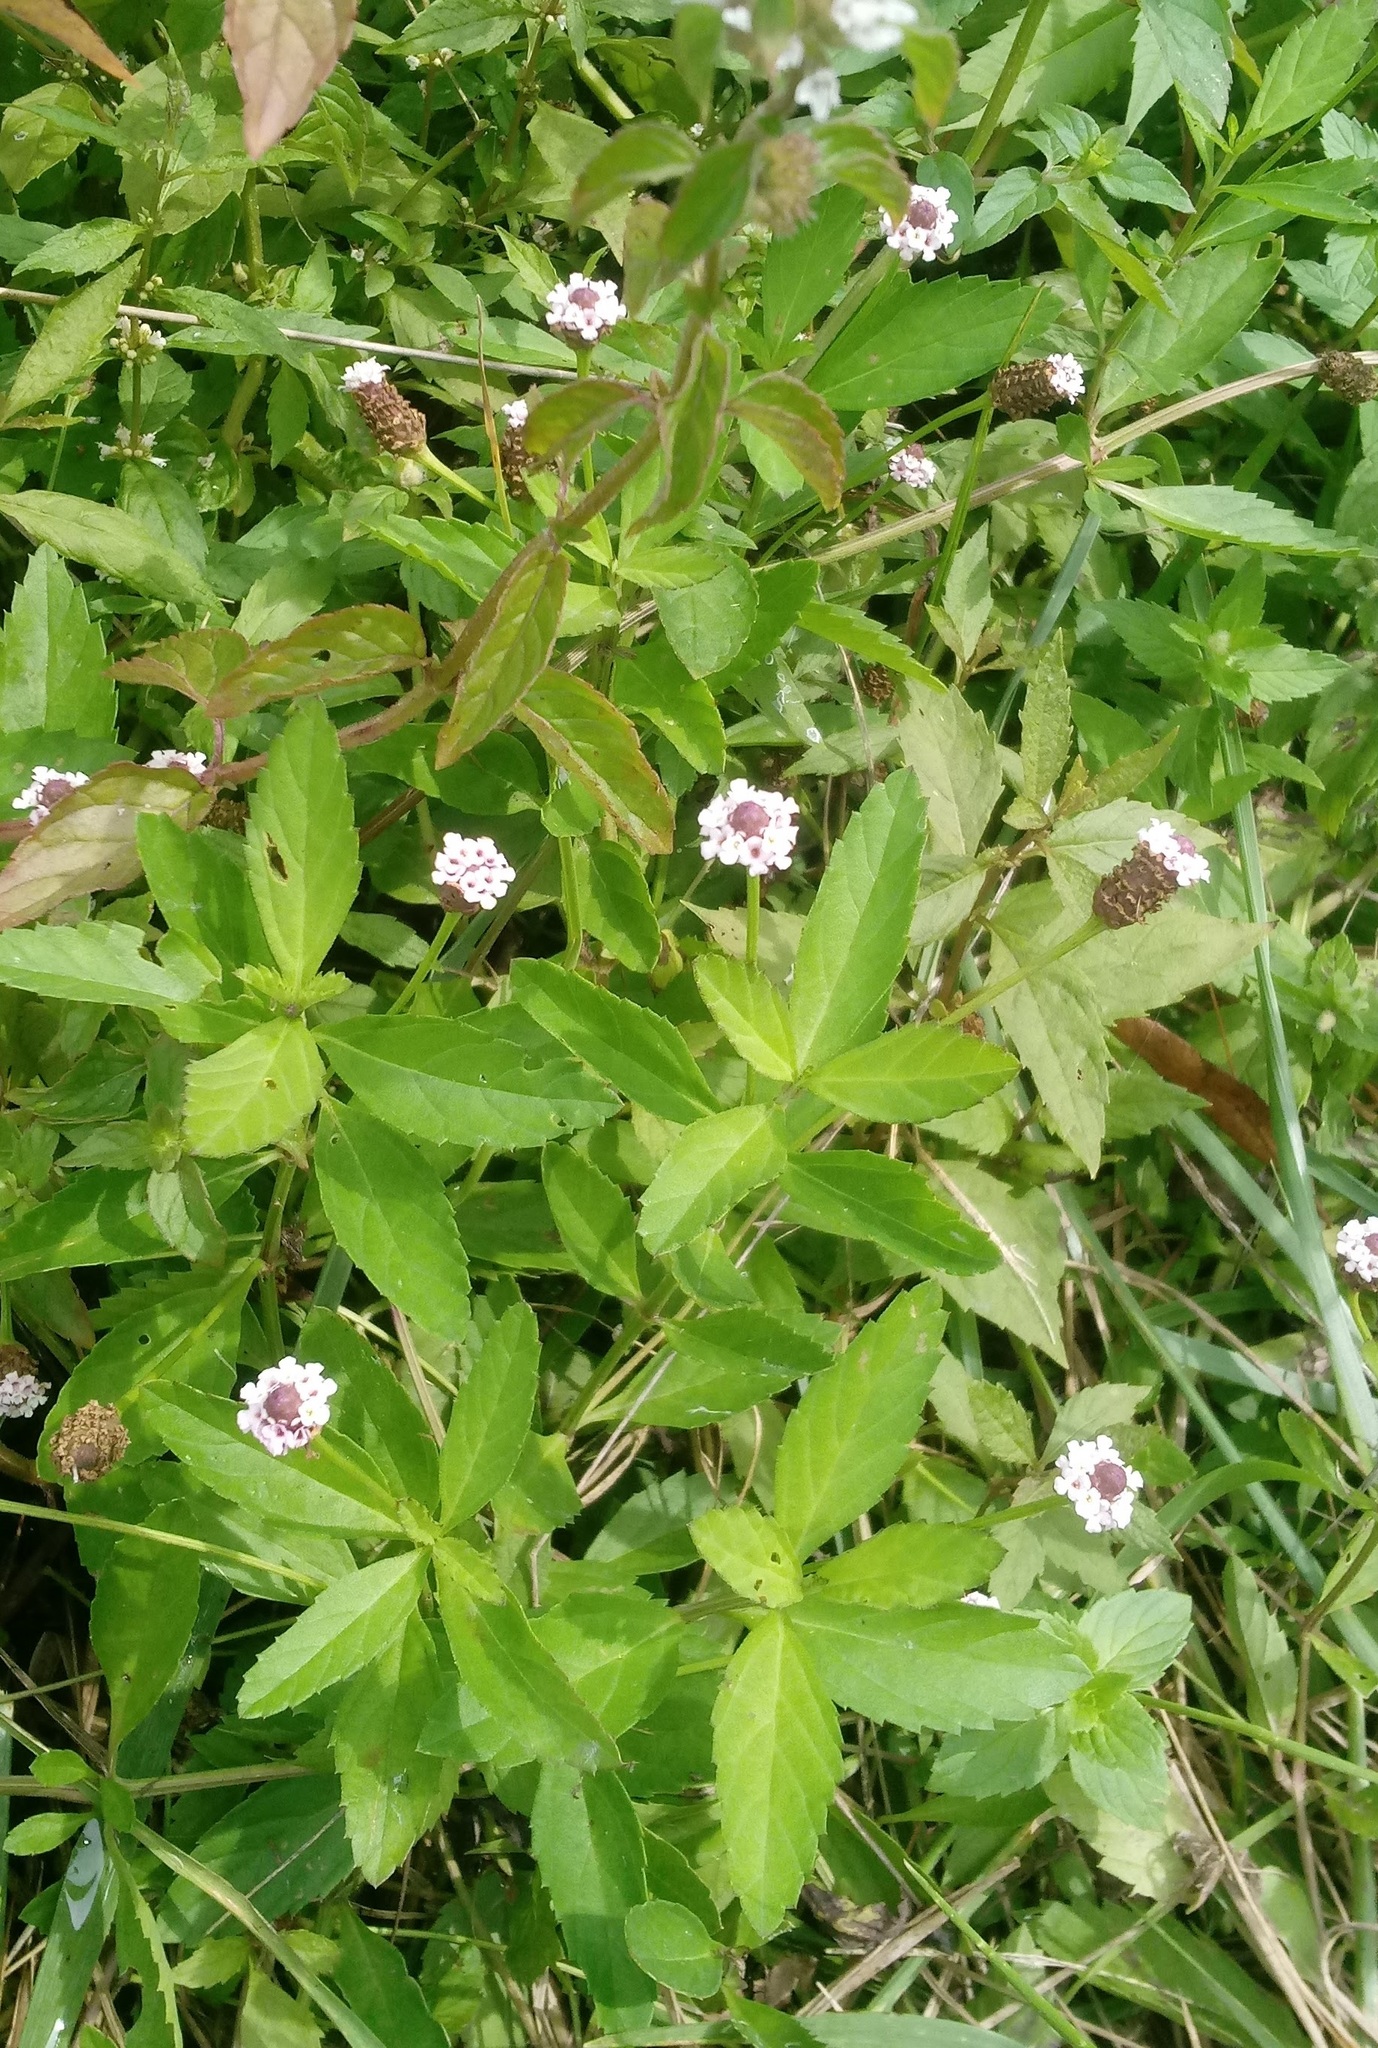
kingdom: Plantae
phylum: Tracheophyta
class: Magnoliopsida
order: Lamiales
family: Verbenaceae
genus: Phyla
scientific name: Phyla lanceolata
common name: Northern fogfruit
